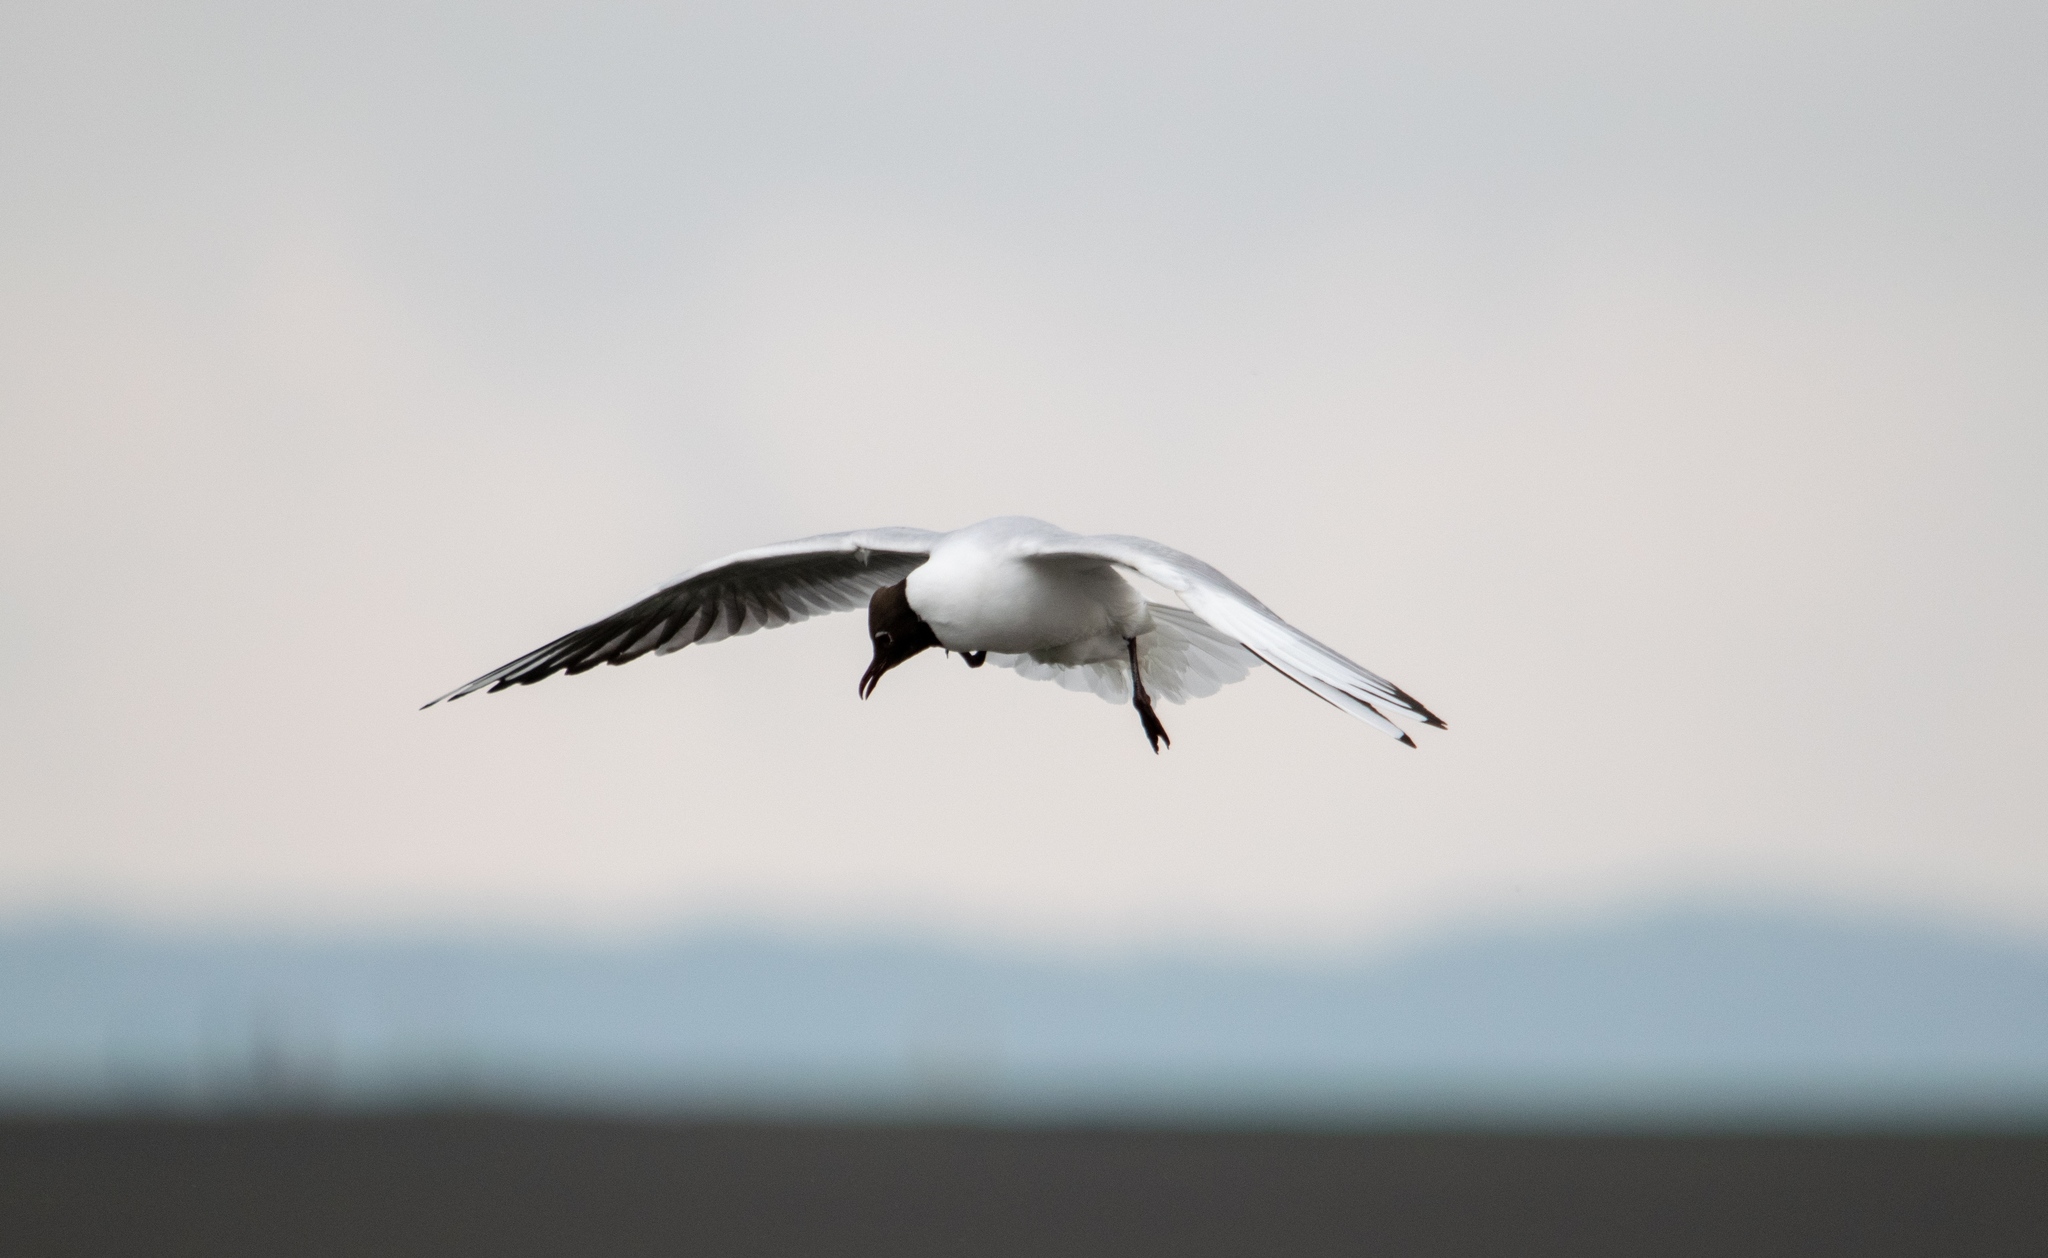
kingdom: Animalia
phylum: Chordata
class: Aves
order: Charadriiformes
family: Laridae
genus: Chroicocephalus
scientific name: Chroicocephalus ridibundus
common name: Black-headed gull
